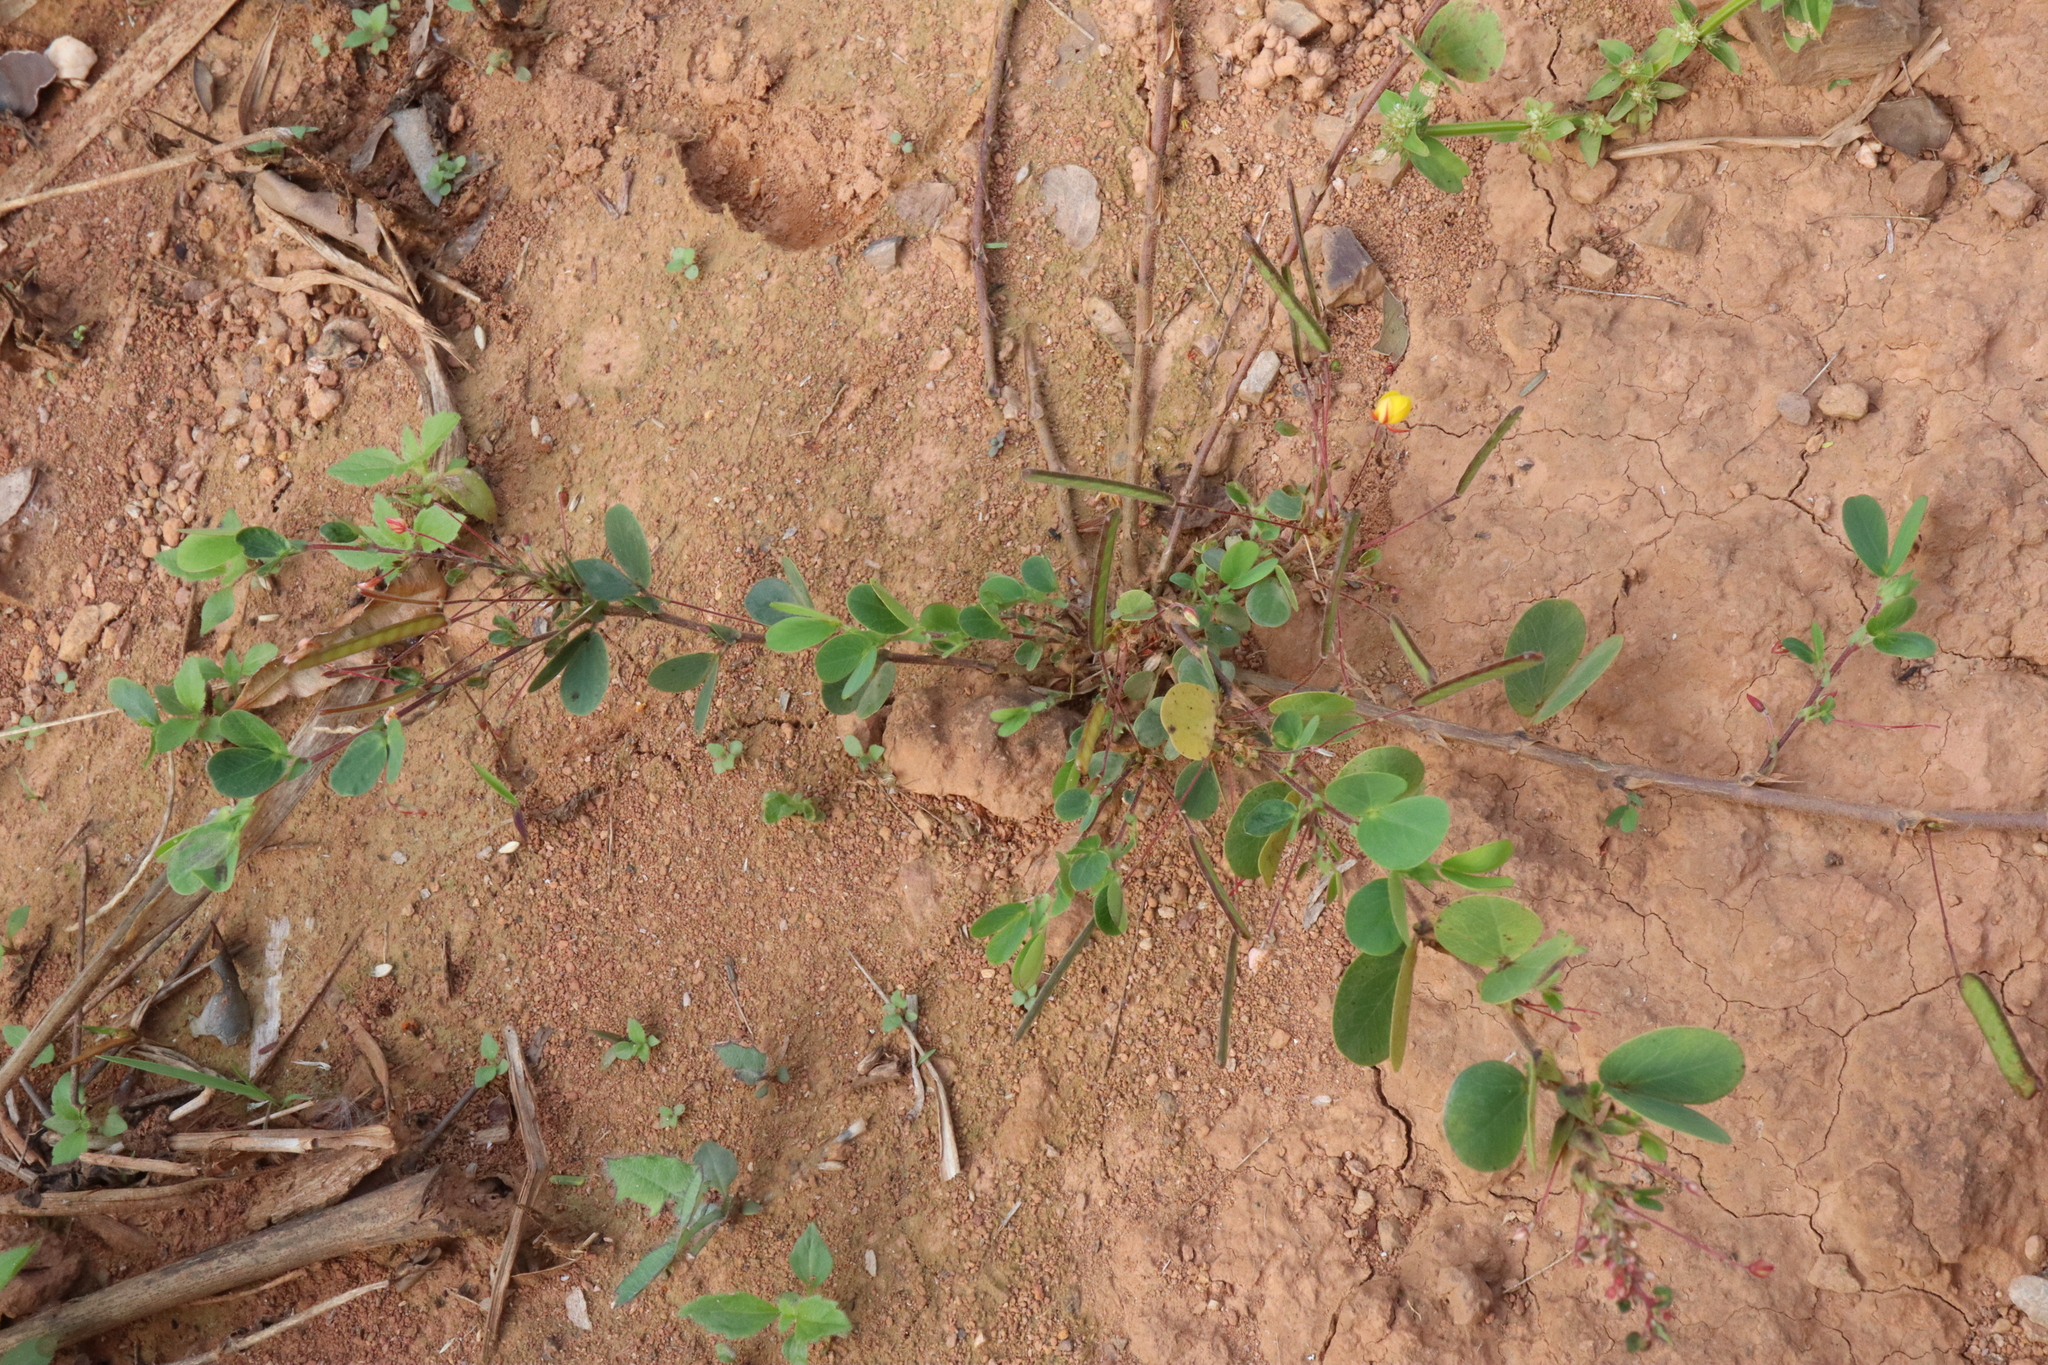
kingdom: Plantae
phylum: Tracheophyta
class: Magnoliopsida
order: Fabales
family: Fabaceae
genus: Chamaecrista
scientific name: Chamaecrista rotundifolia
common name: Round-leaf cassia
